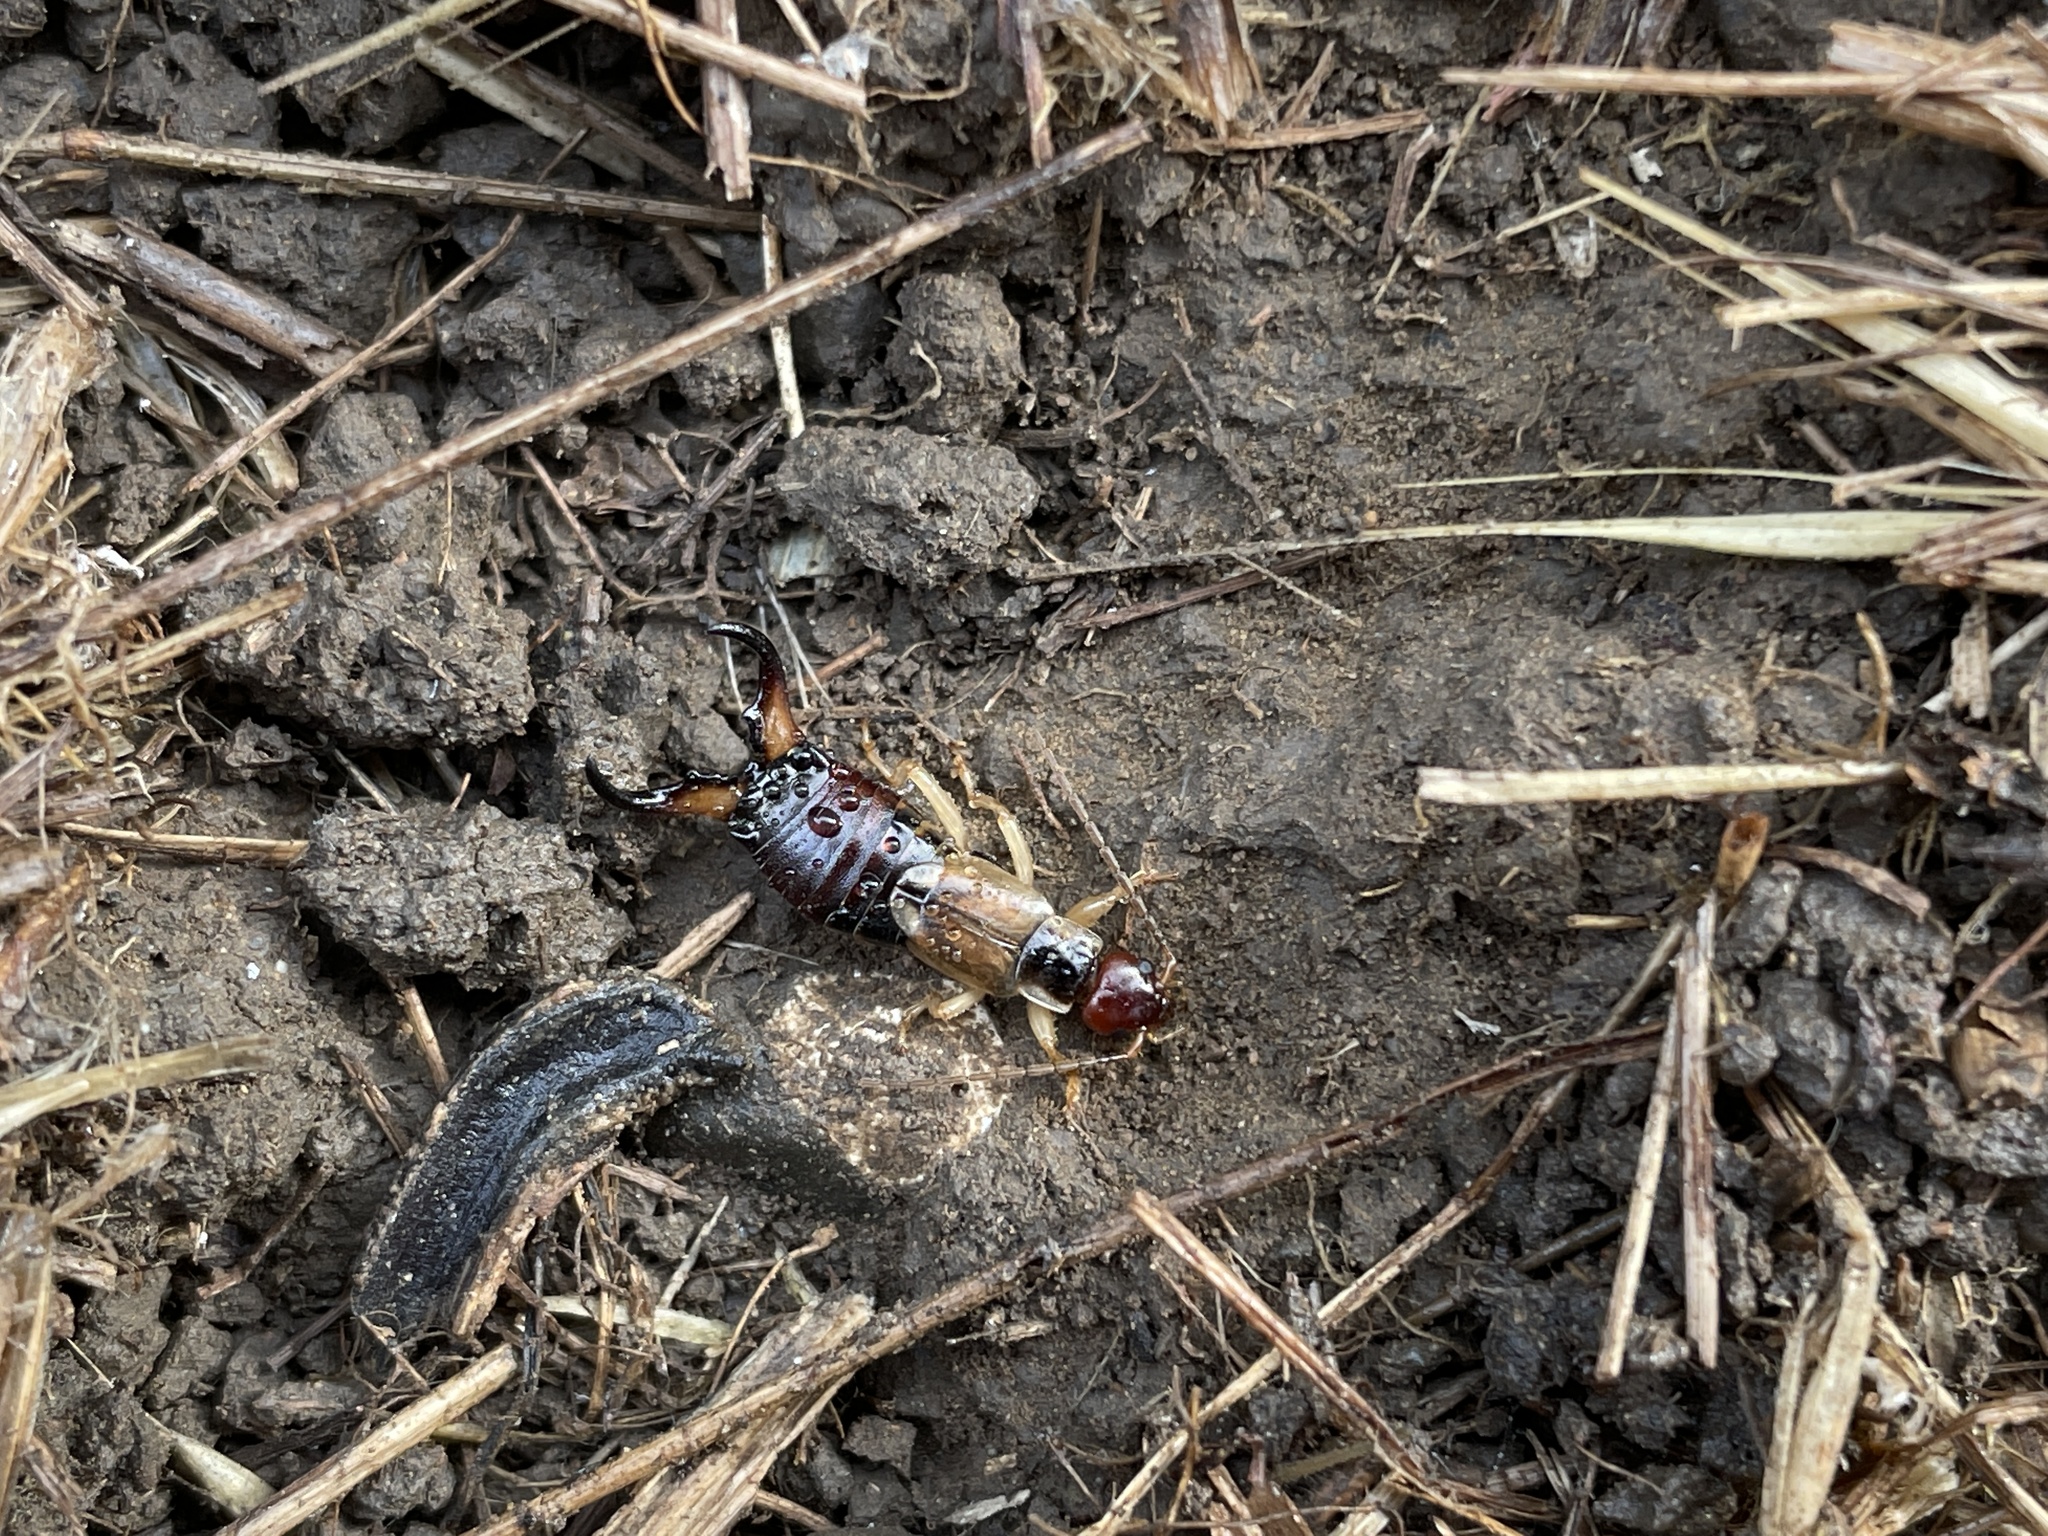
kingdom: Animalia
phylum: Arthropoda
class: Insecta
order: Dermaptera
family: Forficulidae
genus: Forficula
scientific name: Forficula
